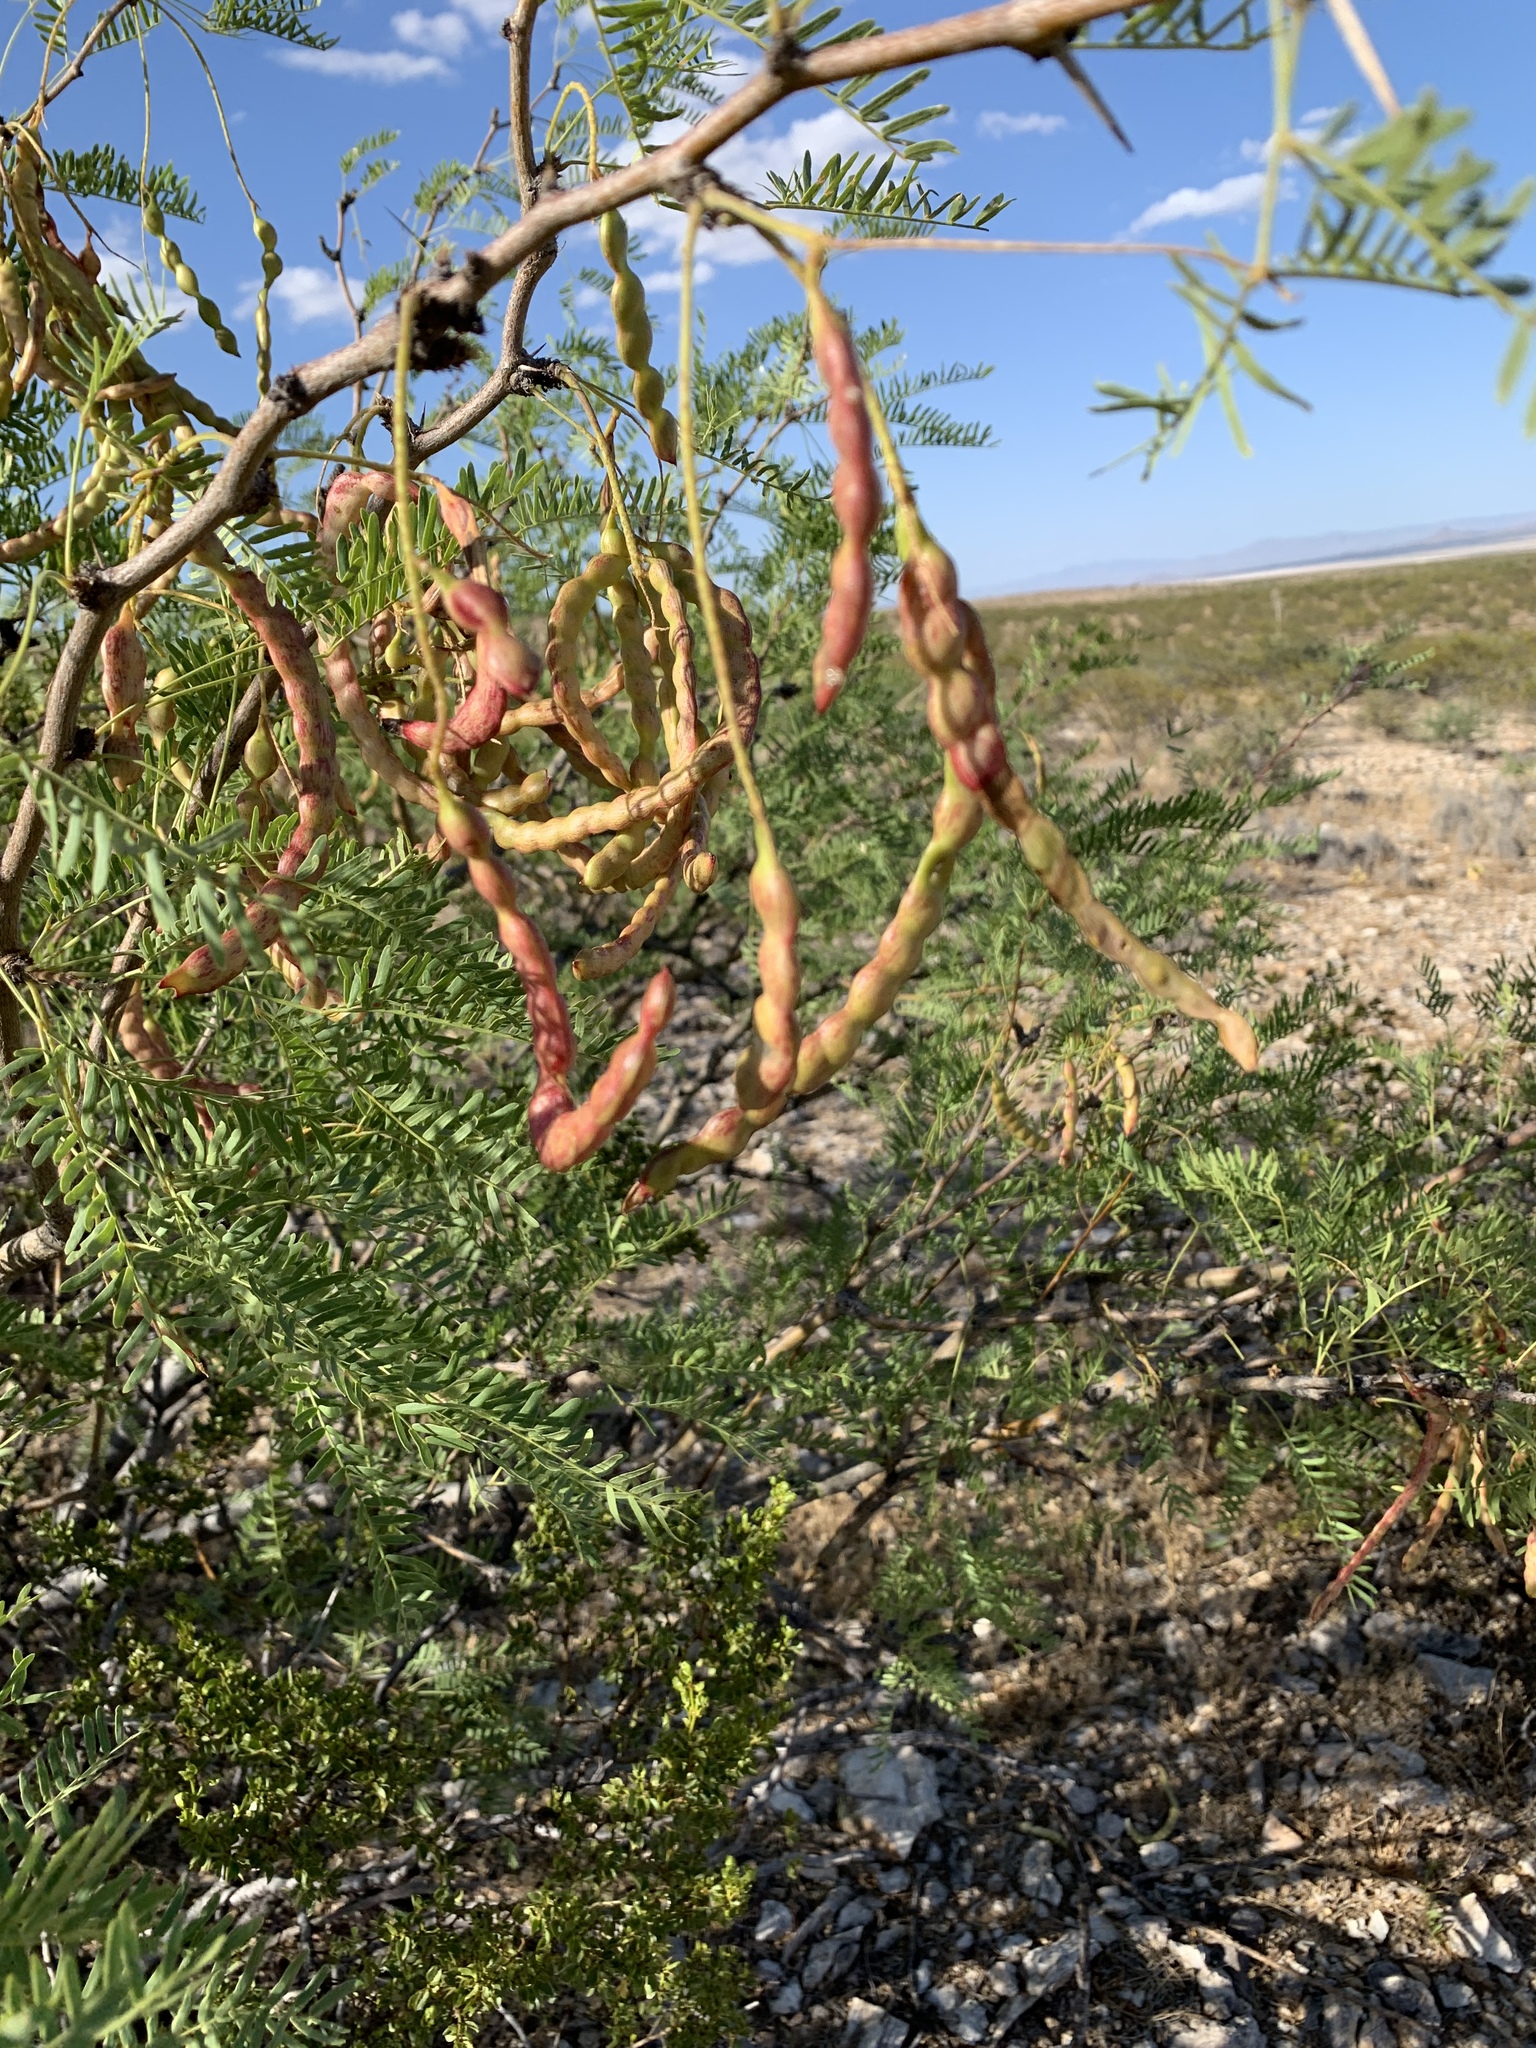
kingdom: Plantae
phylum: Tracheophyta
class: Magnoliopsida
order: Fabales
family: Fabaceae
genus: Prosopis
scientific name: Prosopis glandulosa
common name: Honey mesquite
